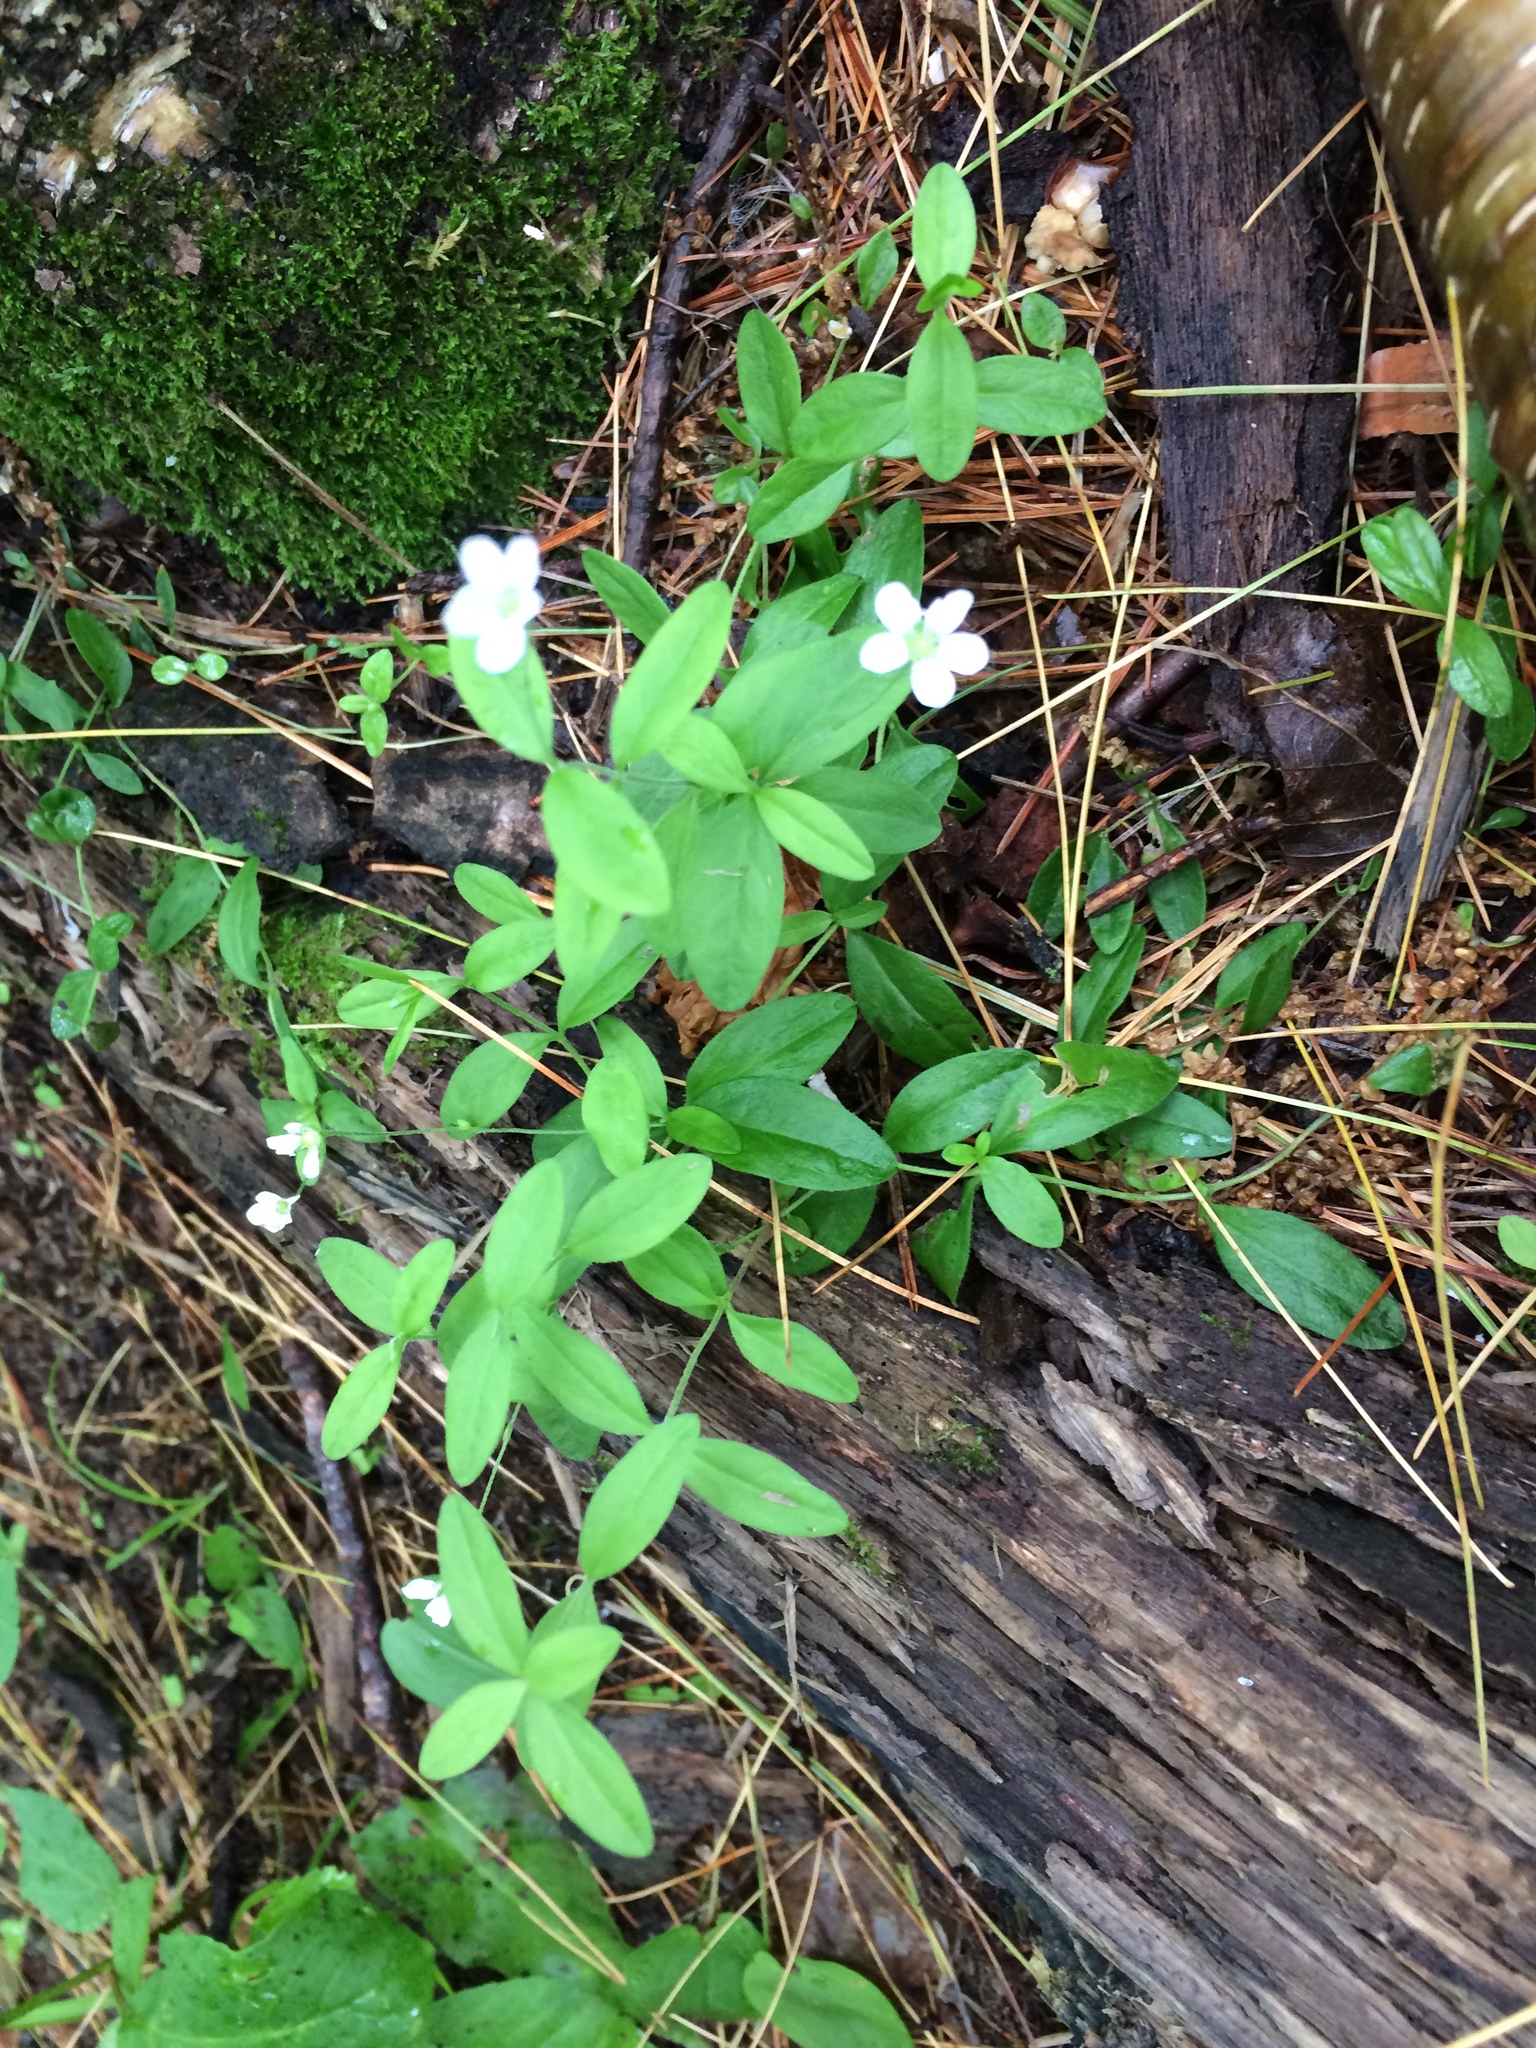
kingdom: Plantae
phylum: Tracheophyta
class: Magnoliopsida
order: Caryophyllales
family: Caryophyllaceae
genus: Moehringia
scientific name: Moehringia lateriflora
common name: Blunt-leaved sandwort
